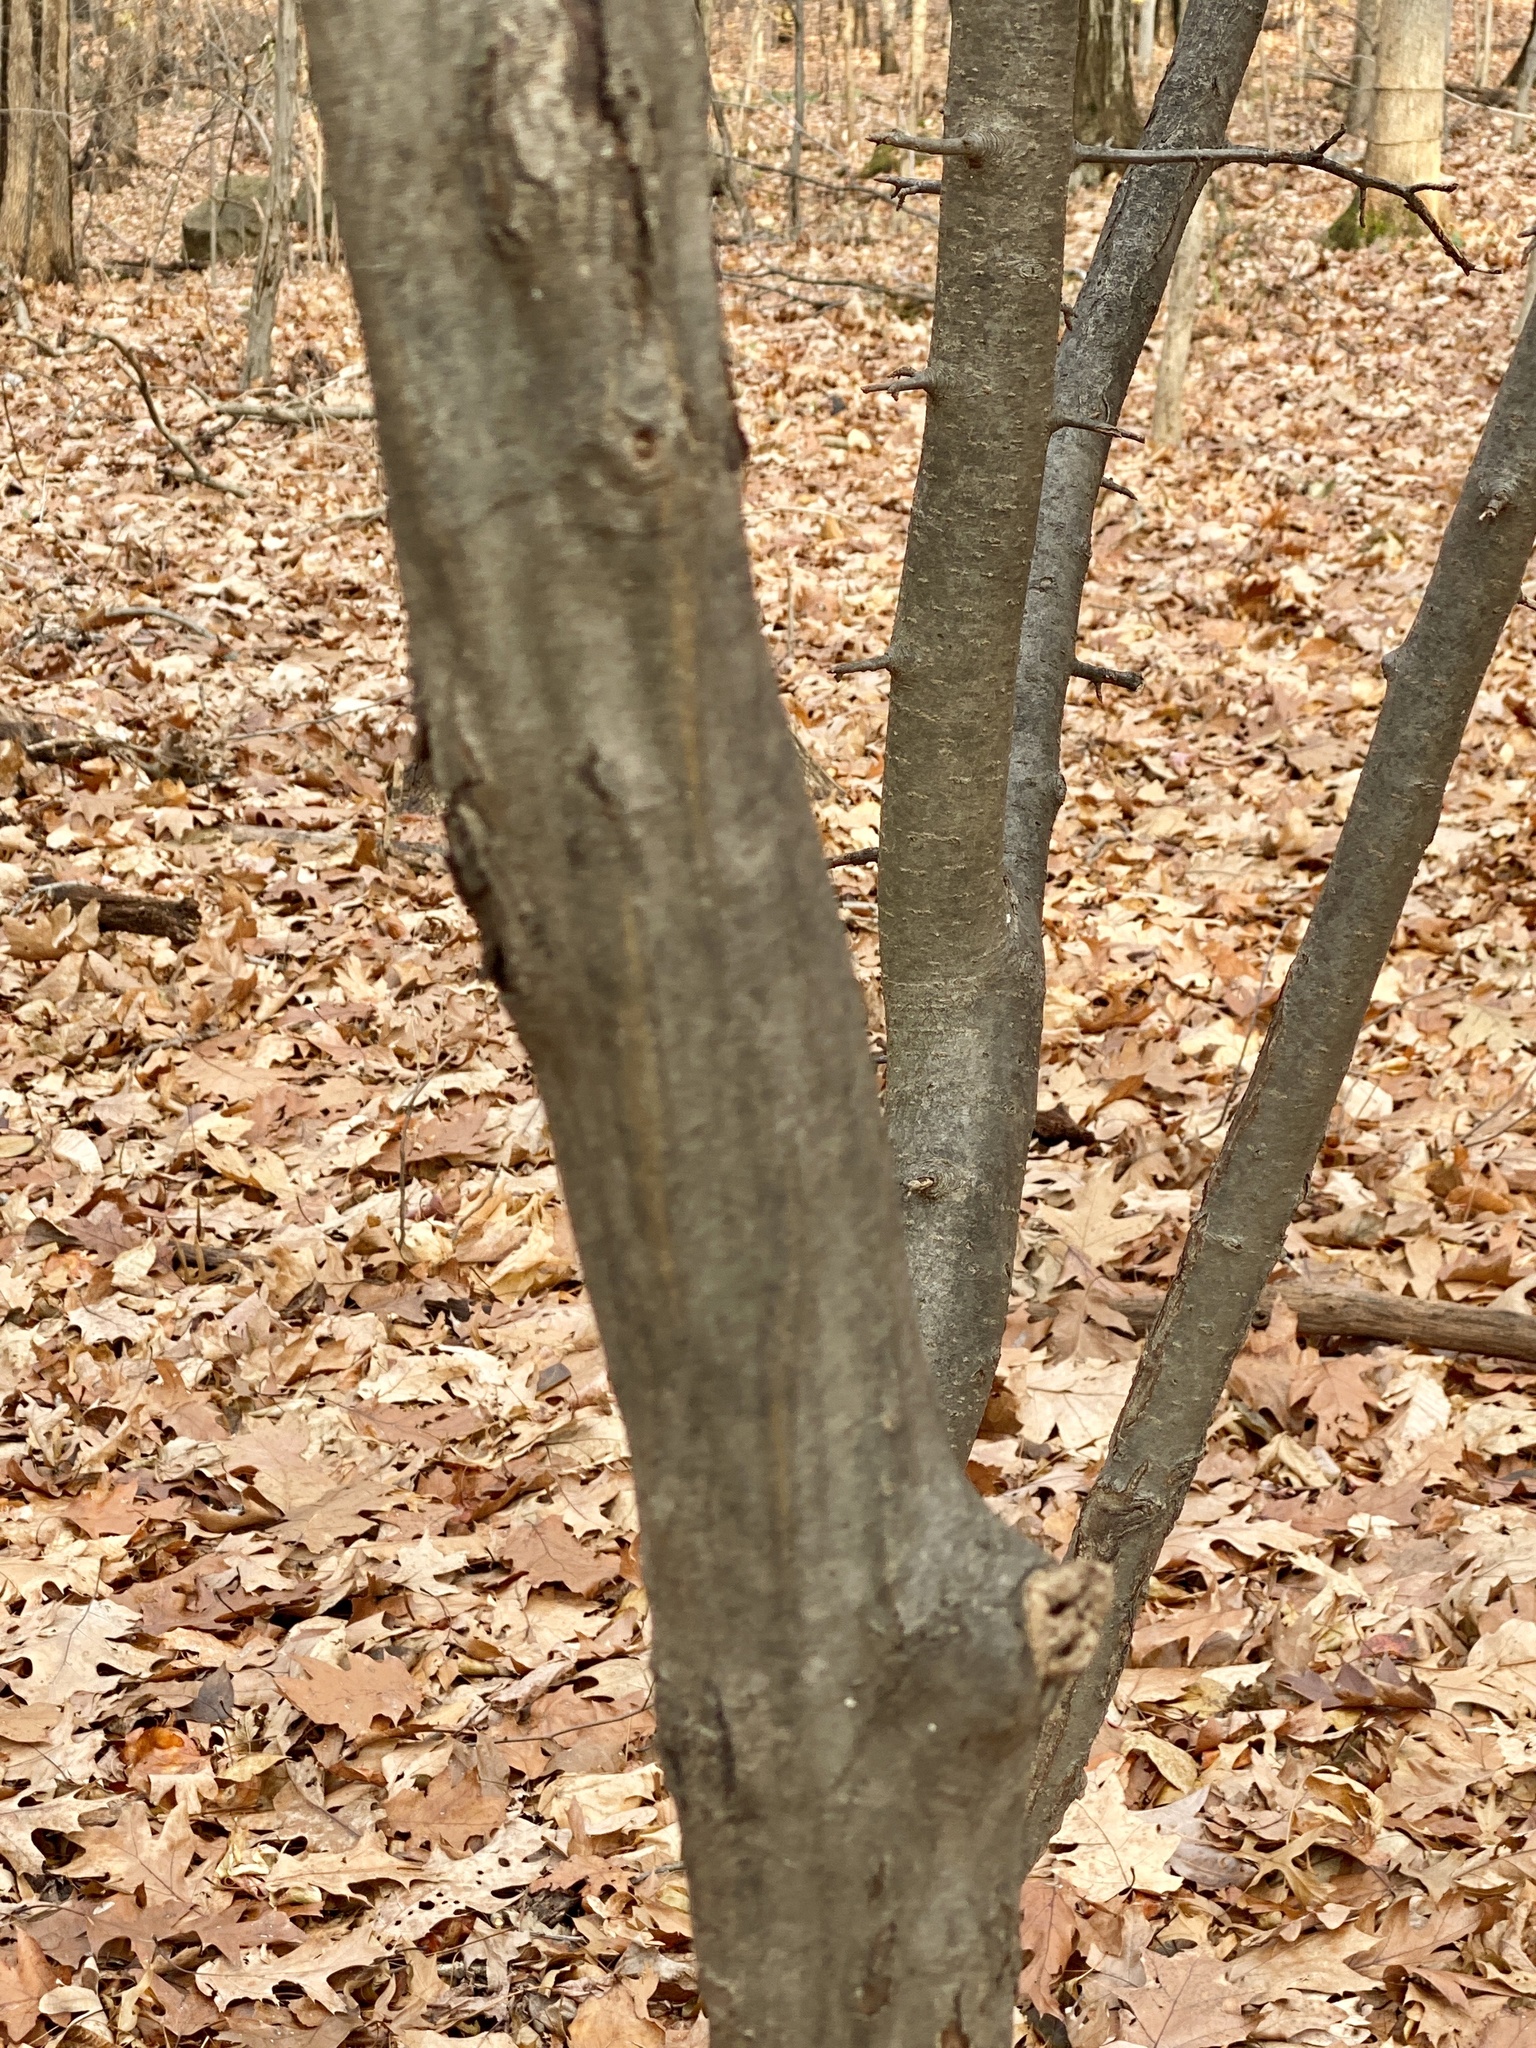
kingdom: Plantae
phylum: Tracheophyta
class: Magnoliopsida
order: Fagales
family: Betulaceae
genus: Carpinus
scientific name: Carpinus caroliniana
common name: American hornbeam
